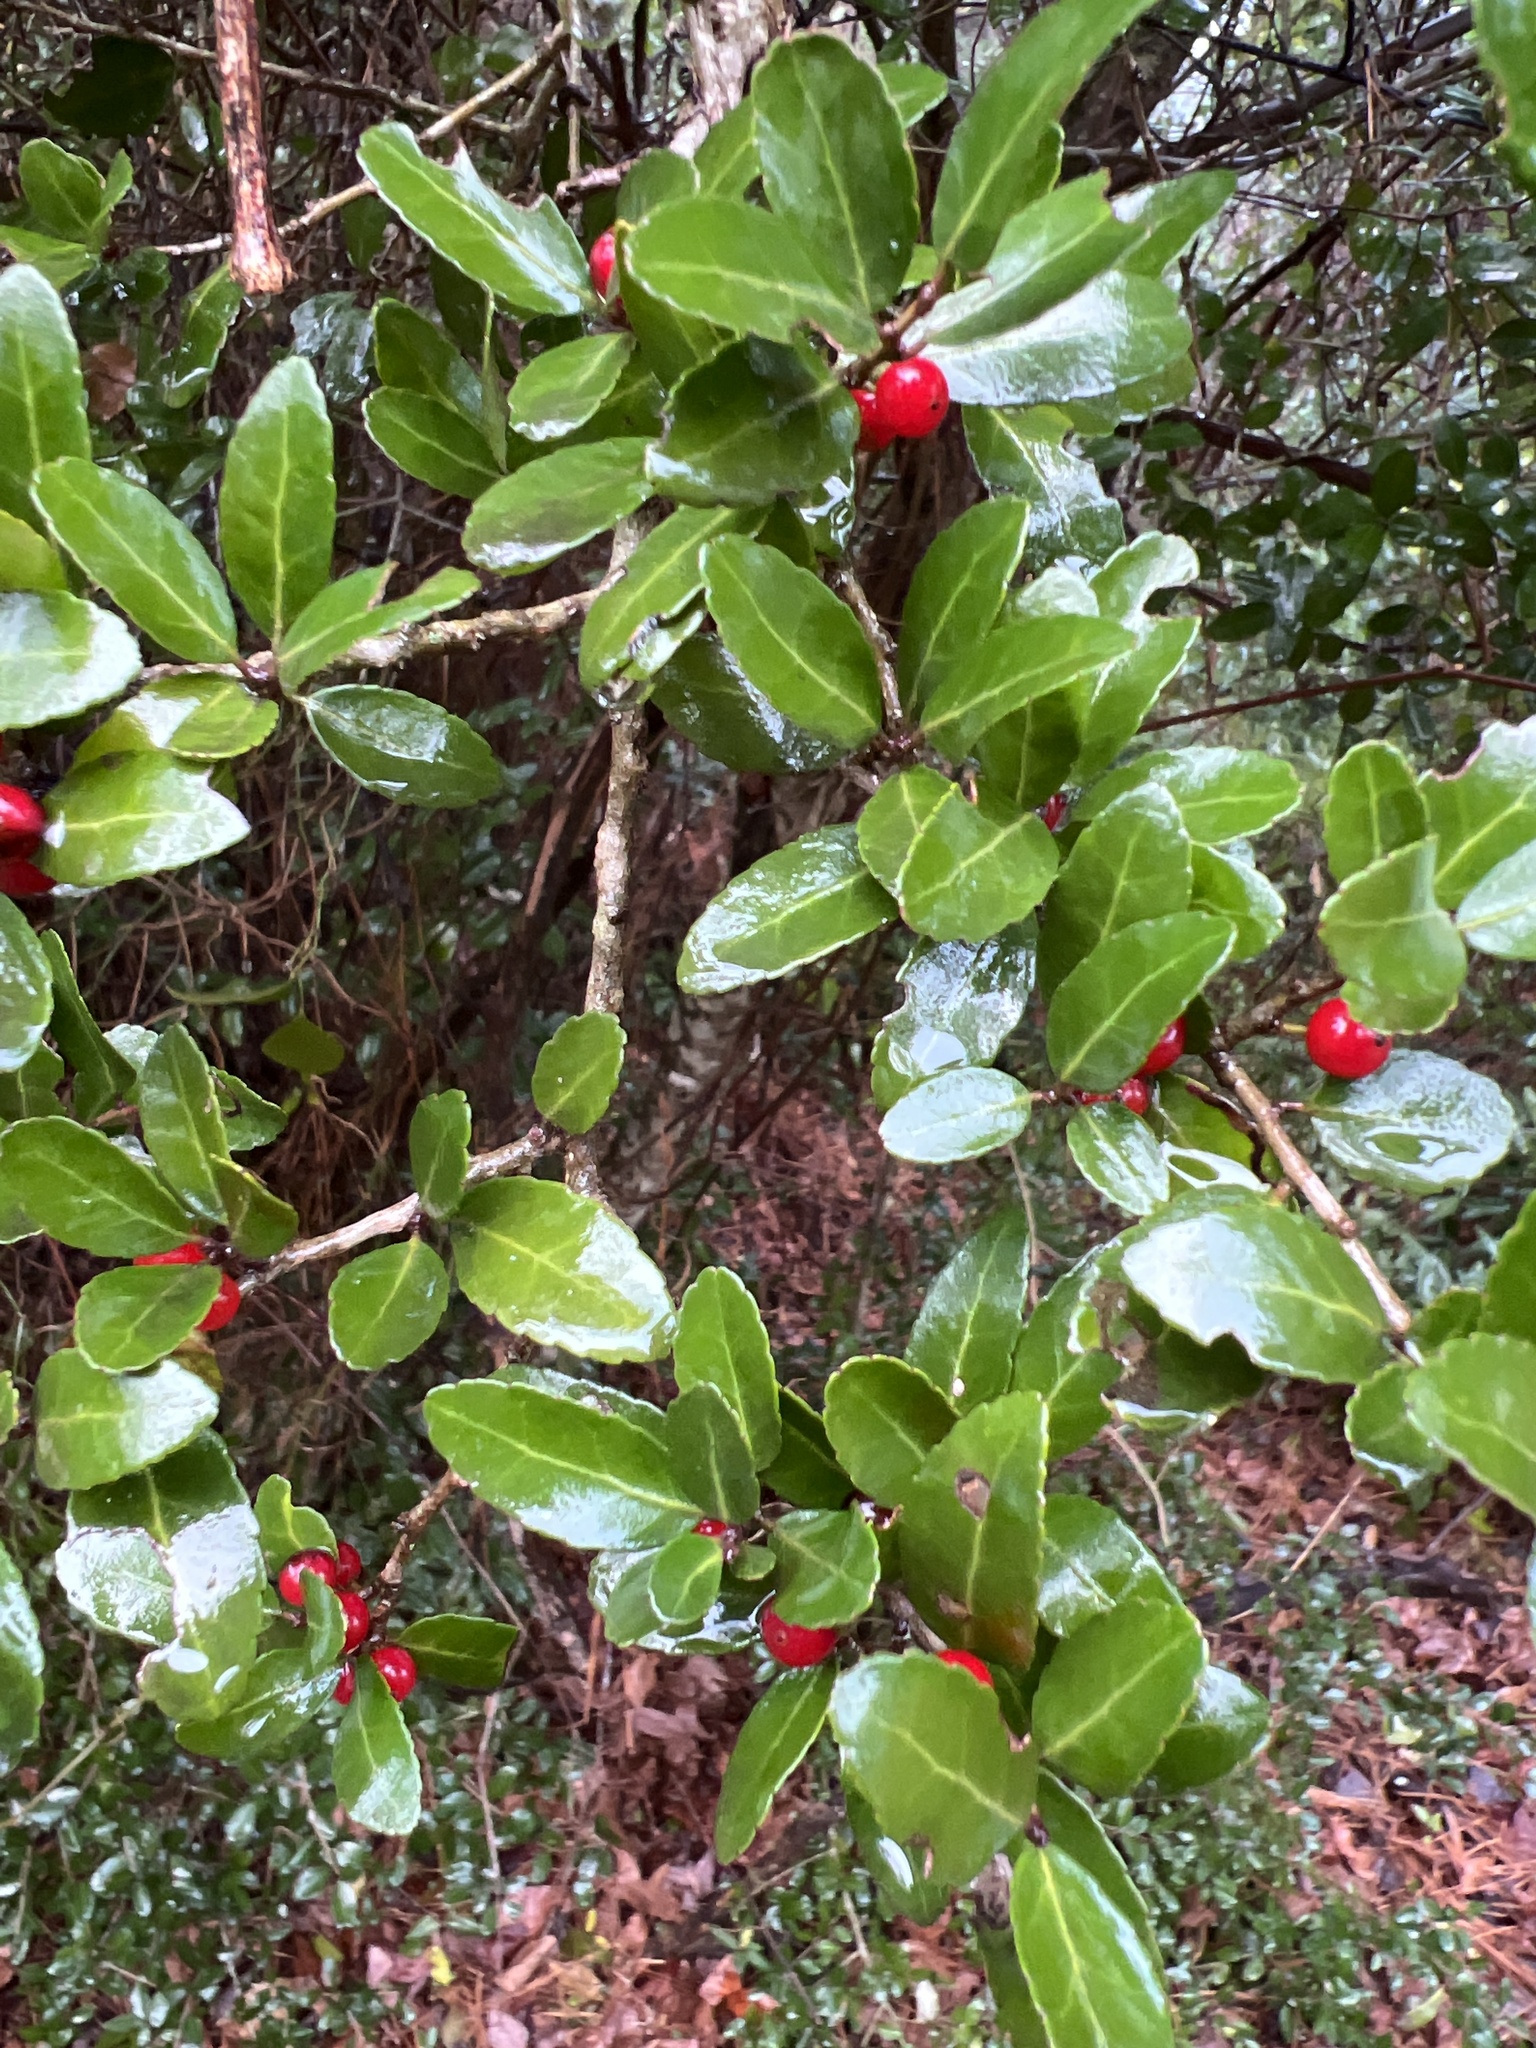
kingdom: Plantae
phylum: Tracheophyta
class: Magnoliopsida
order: Aquifoliales
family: Aquifoliaceae
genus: Ilex
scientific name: Ilex vomitoria
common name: Yaupon holly
